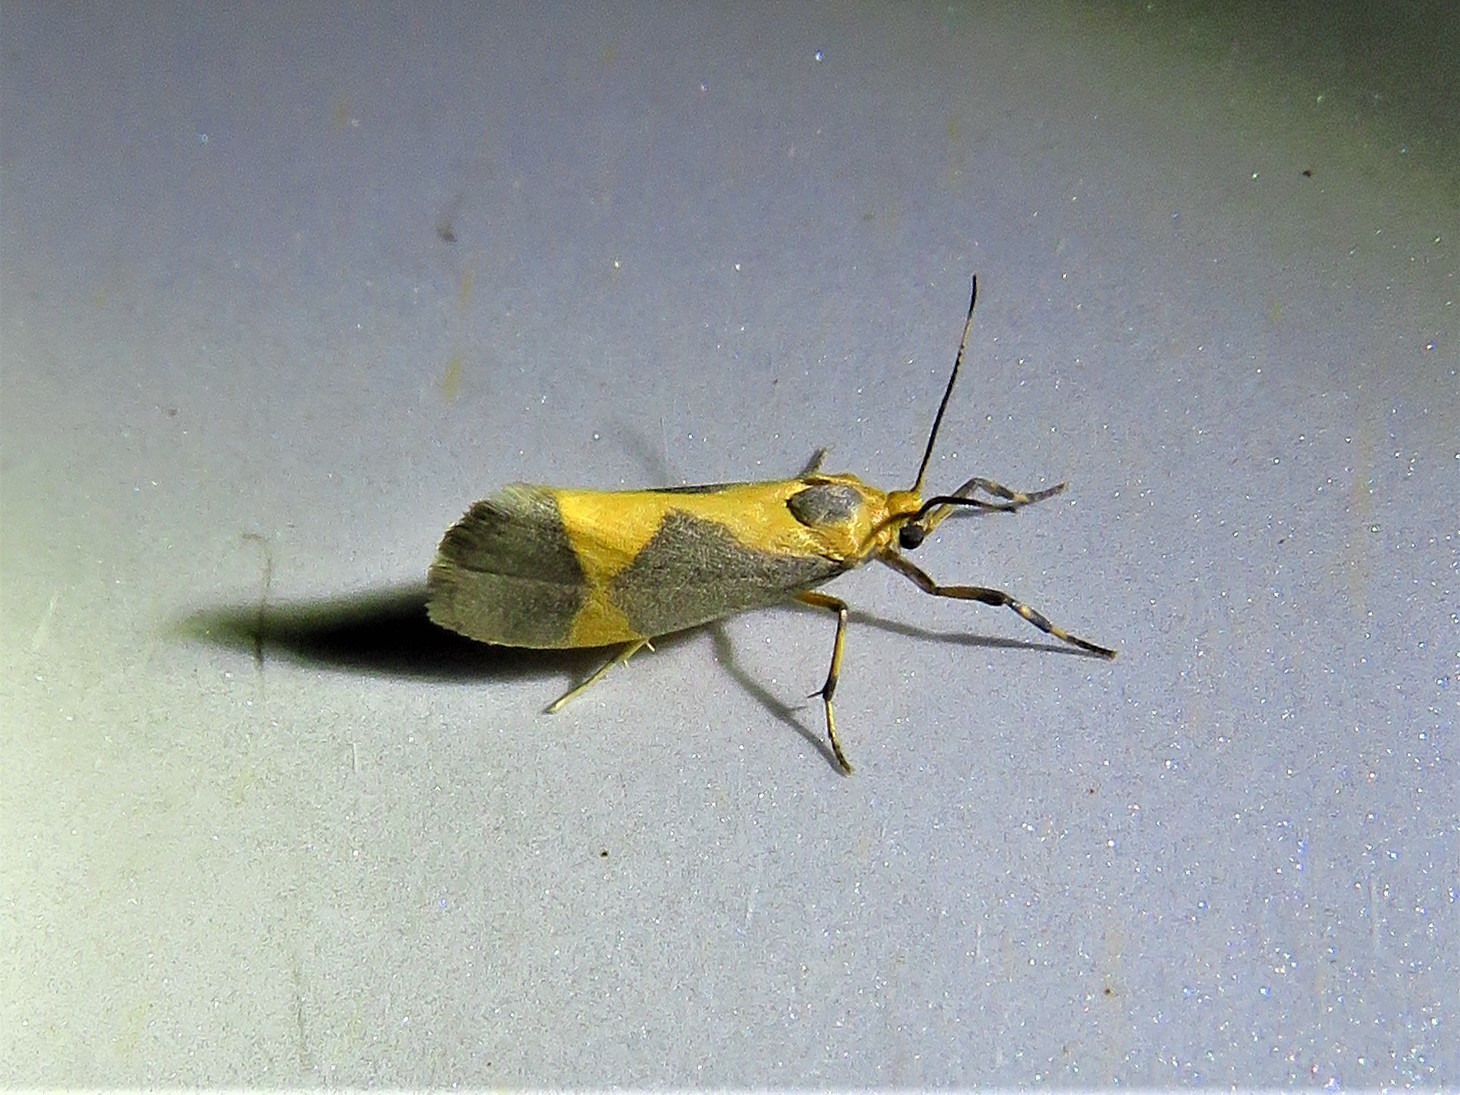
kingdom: Animalia
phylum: Arthropoda
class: Insecta
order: Lepidoptera
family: Erebidae
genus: Cisthene
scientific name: Cisthene unifascia
